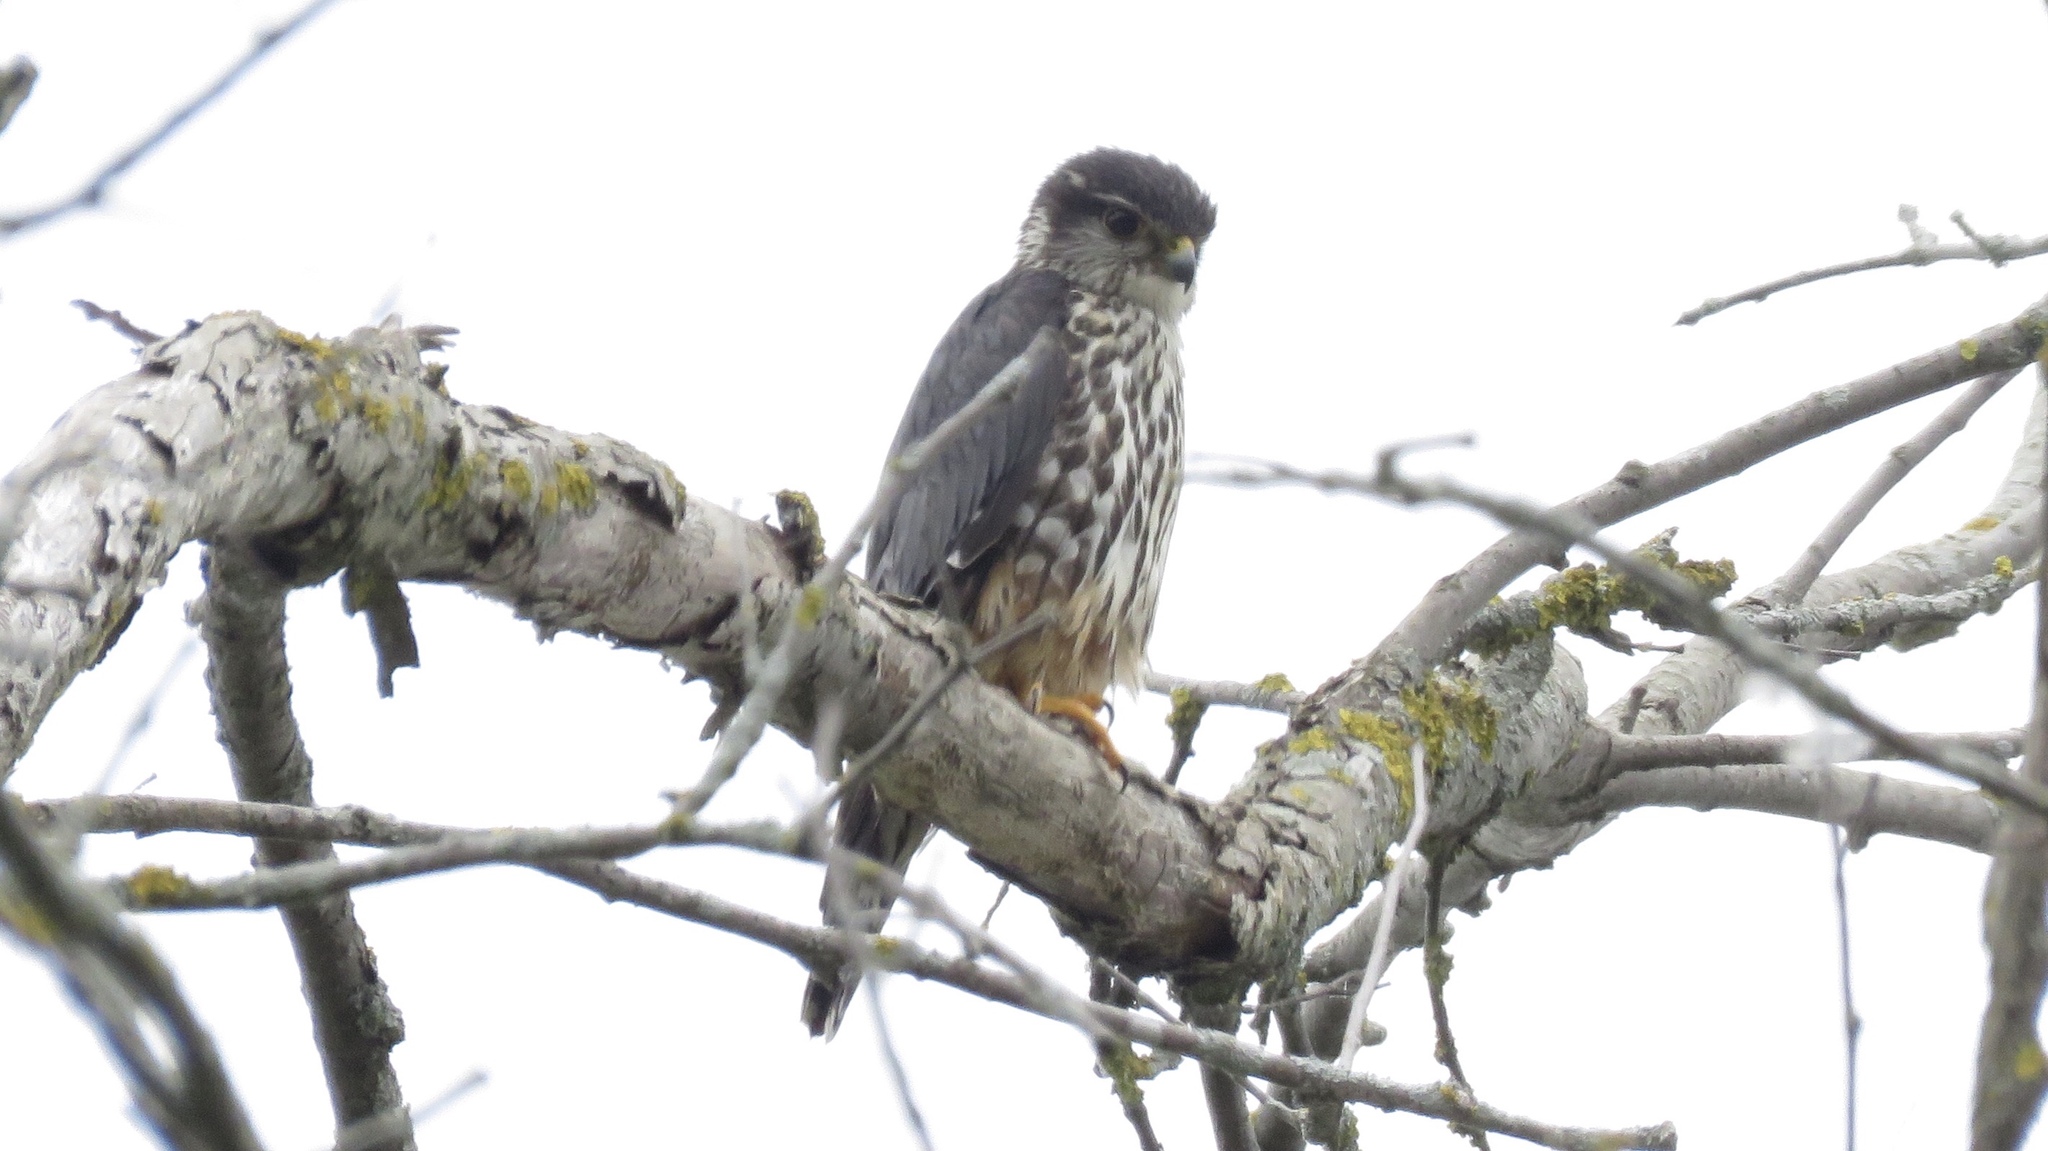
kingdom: Animalia
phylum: Chordata
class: Aves
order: Falconiformes
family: Falconidae
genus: Falco
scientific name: Falco columbarius
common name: Merlin
